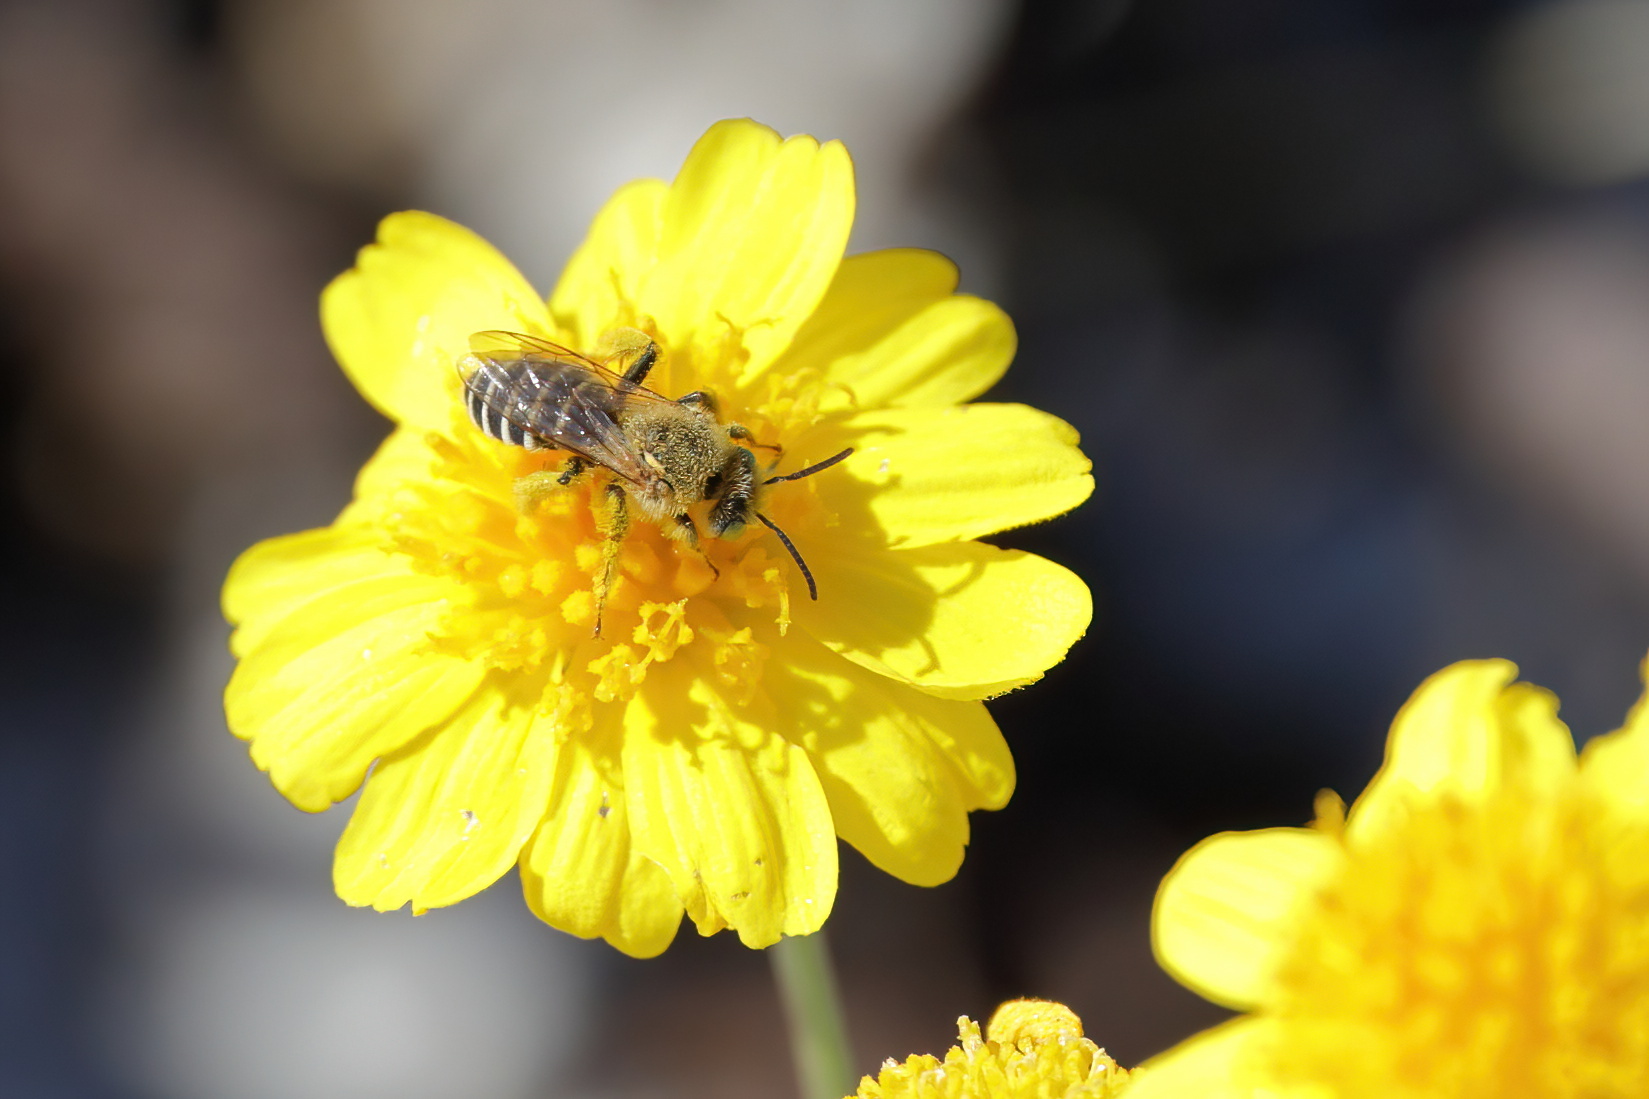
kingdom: Animalia
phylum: Arthropoda
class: Insecta
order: Hymenoptera
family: Melittidae
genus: Hesperapis
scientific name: Hesperapis oraria
